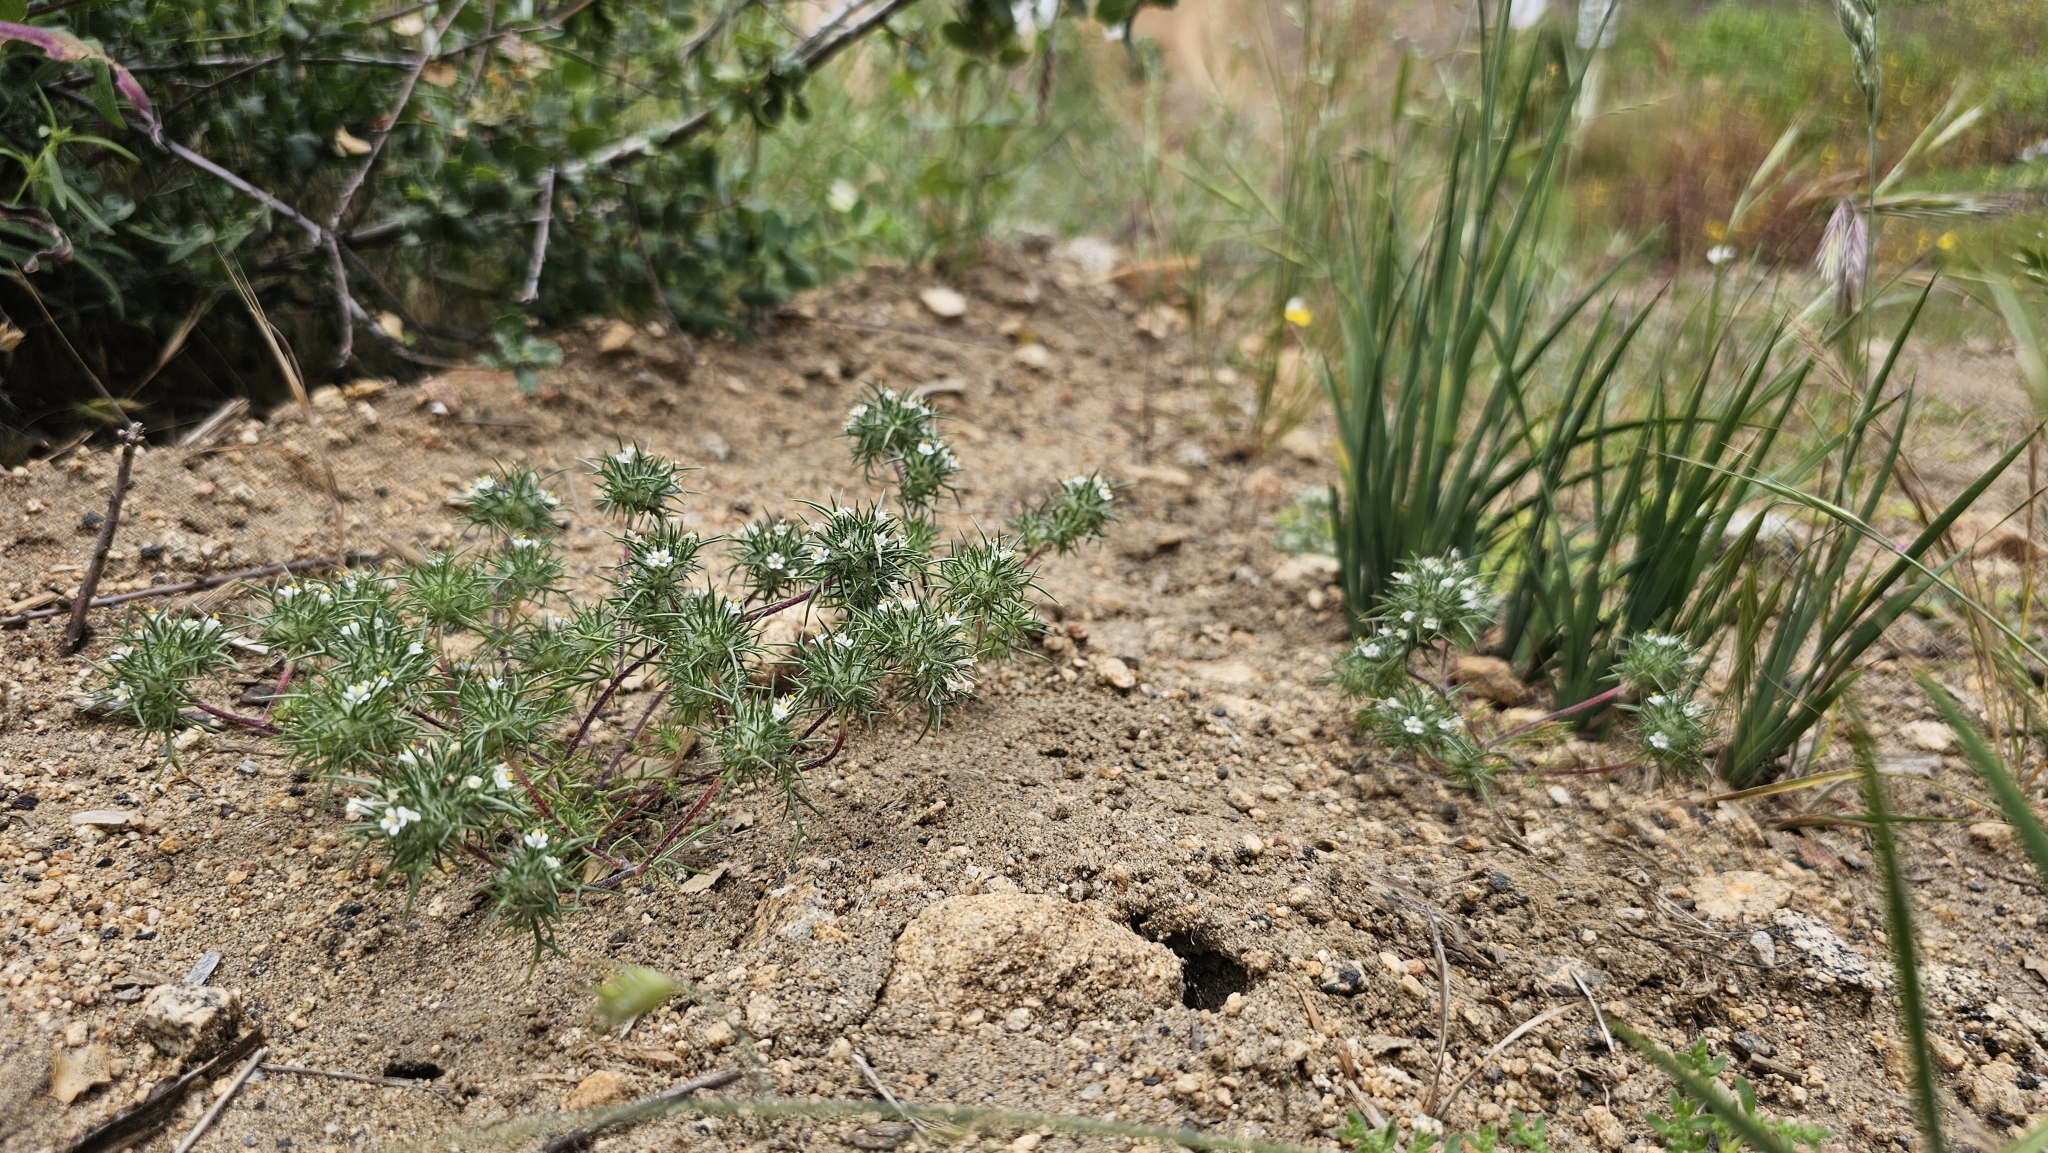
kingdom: Plantae
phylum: Tracheophyta
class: Magnoliopsida
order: Ericales
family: Polemoniaceae
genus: Navarretia
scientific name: Navarretia intertexta
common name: Needle-leaved navarretia
